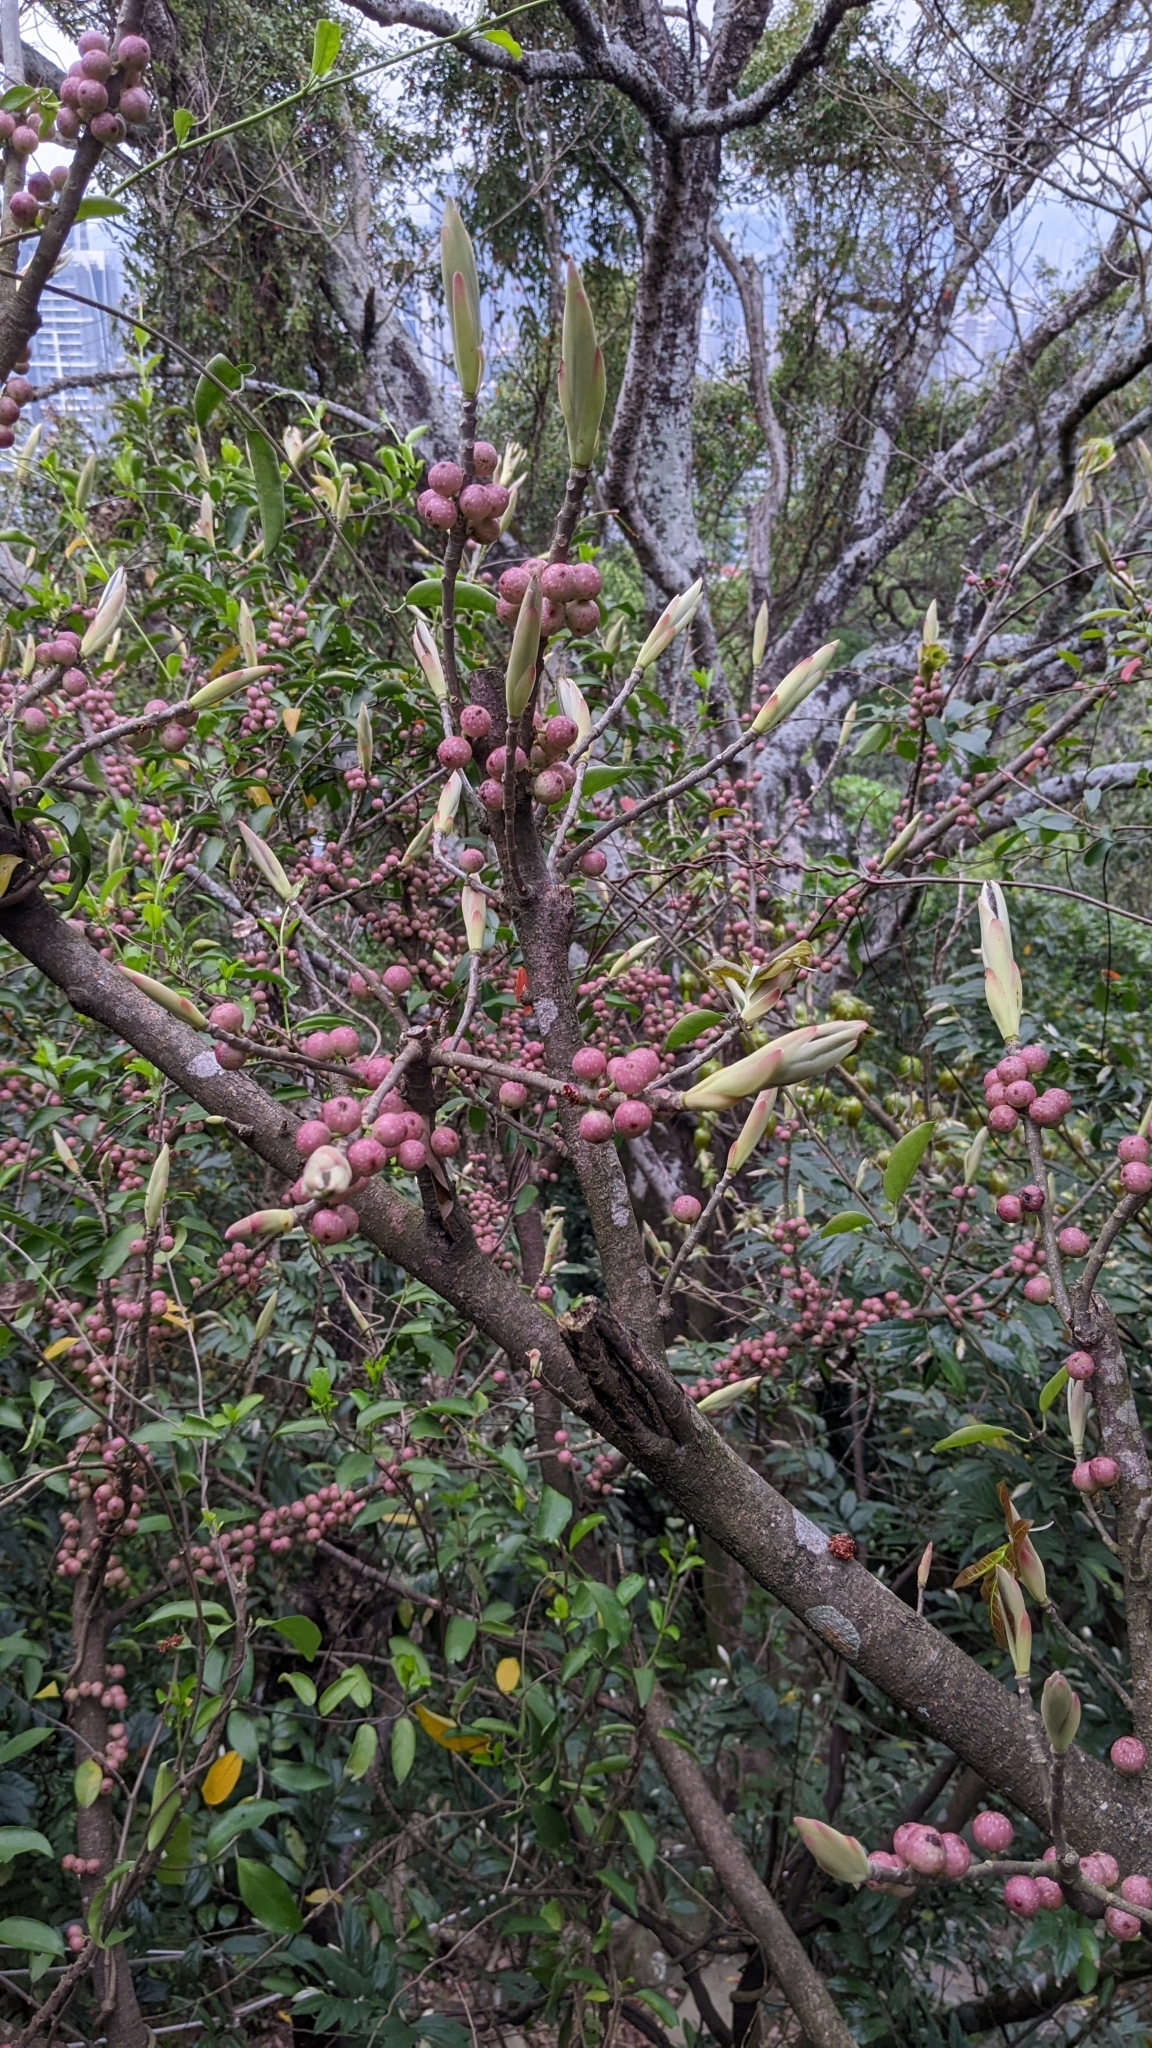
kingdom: Plantae
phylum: Tracheophyta
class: Magnoliopsida
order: Rosales
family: Moraceae
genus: Ficus
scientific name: Ficus subpisocarpa
